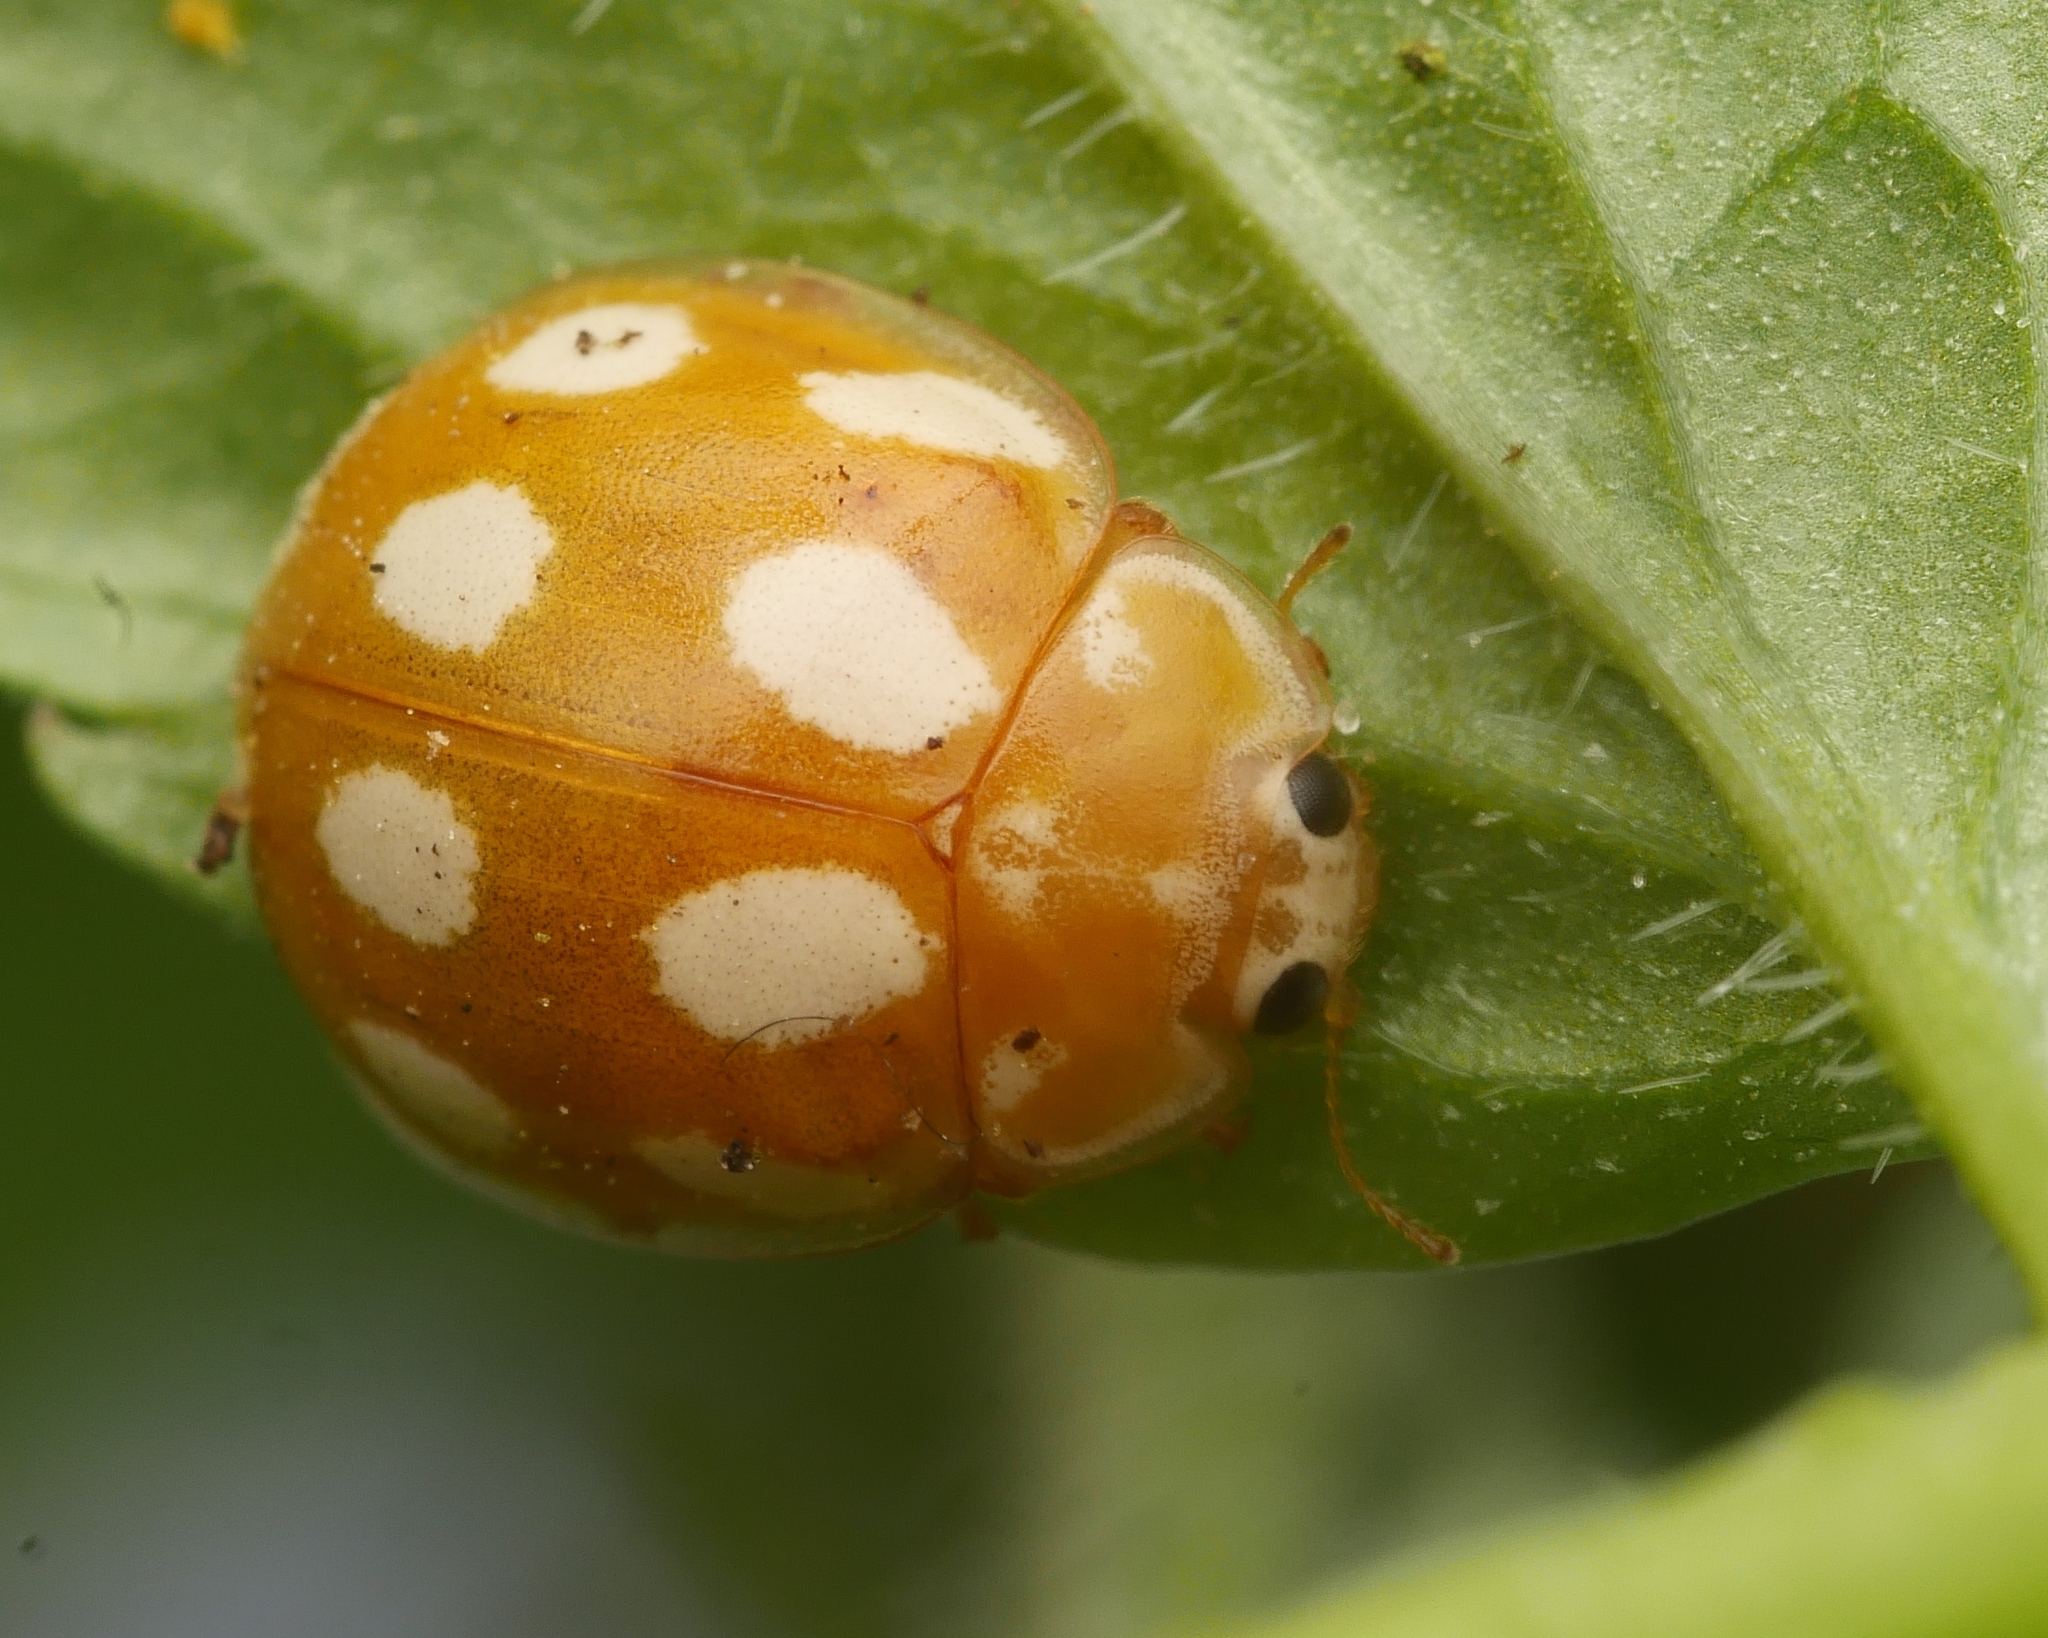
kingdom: Animalia
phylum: Arthropoda
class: Insecta
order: Coleoptera
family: Coccinellidae
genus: Calvia
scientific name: Calvia decemguttata
